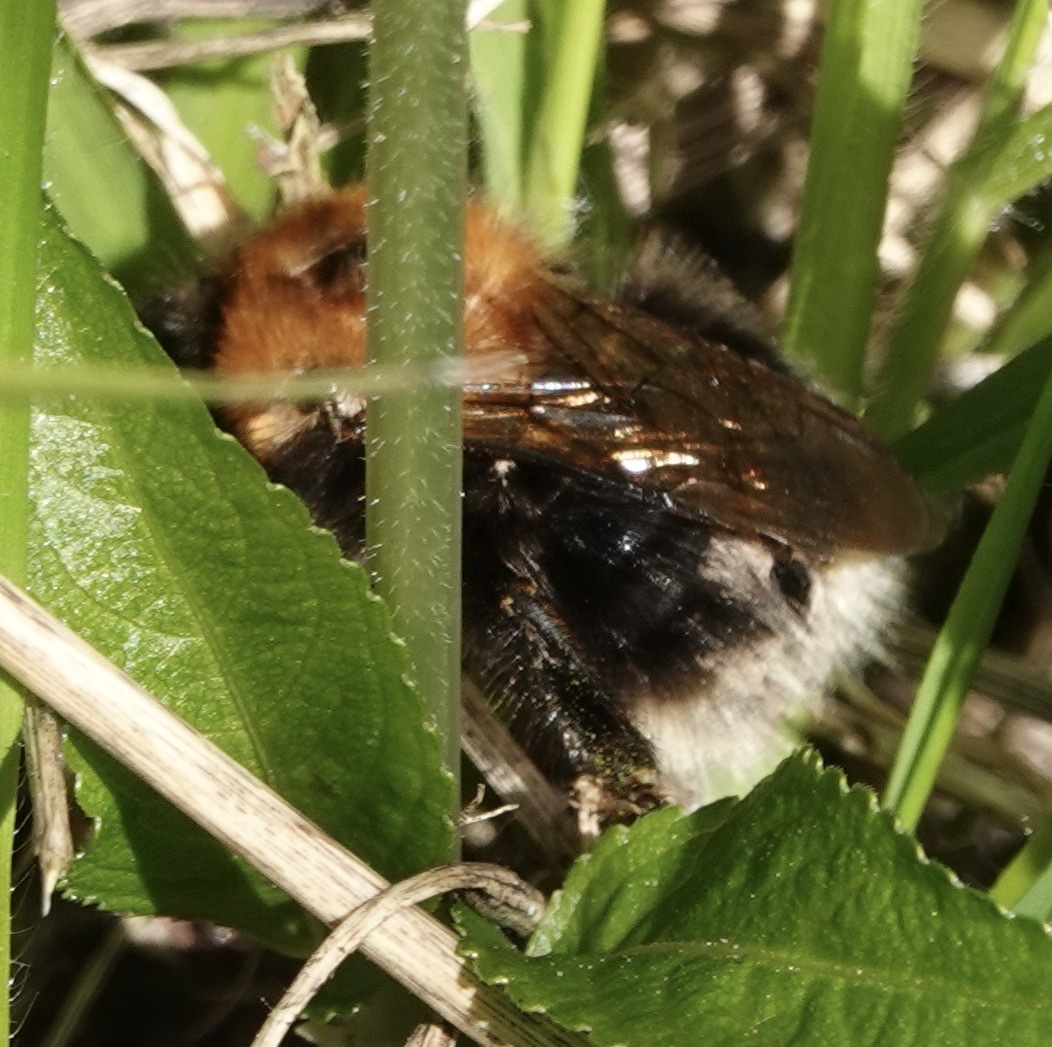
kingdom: Animalia
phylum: Arthropoda
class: Insecta
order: Hymenoptera
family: Apidae
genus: Bombus
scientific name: Bombus hypnorum
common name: New garden bumblebee
